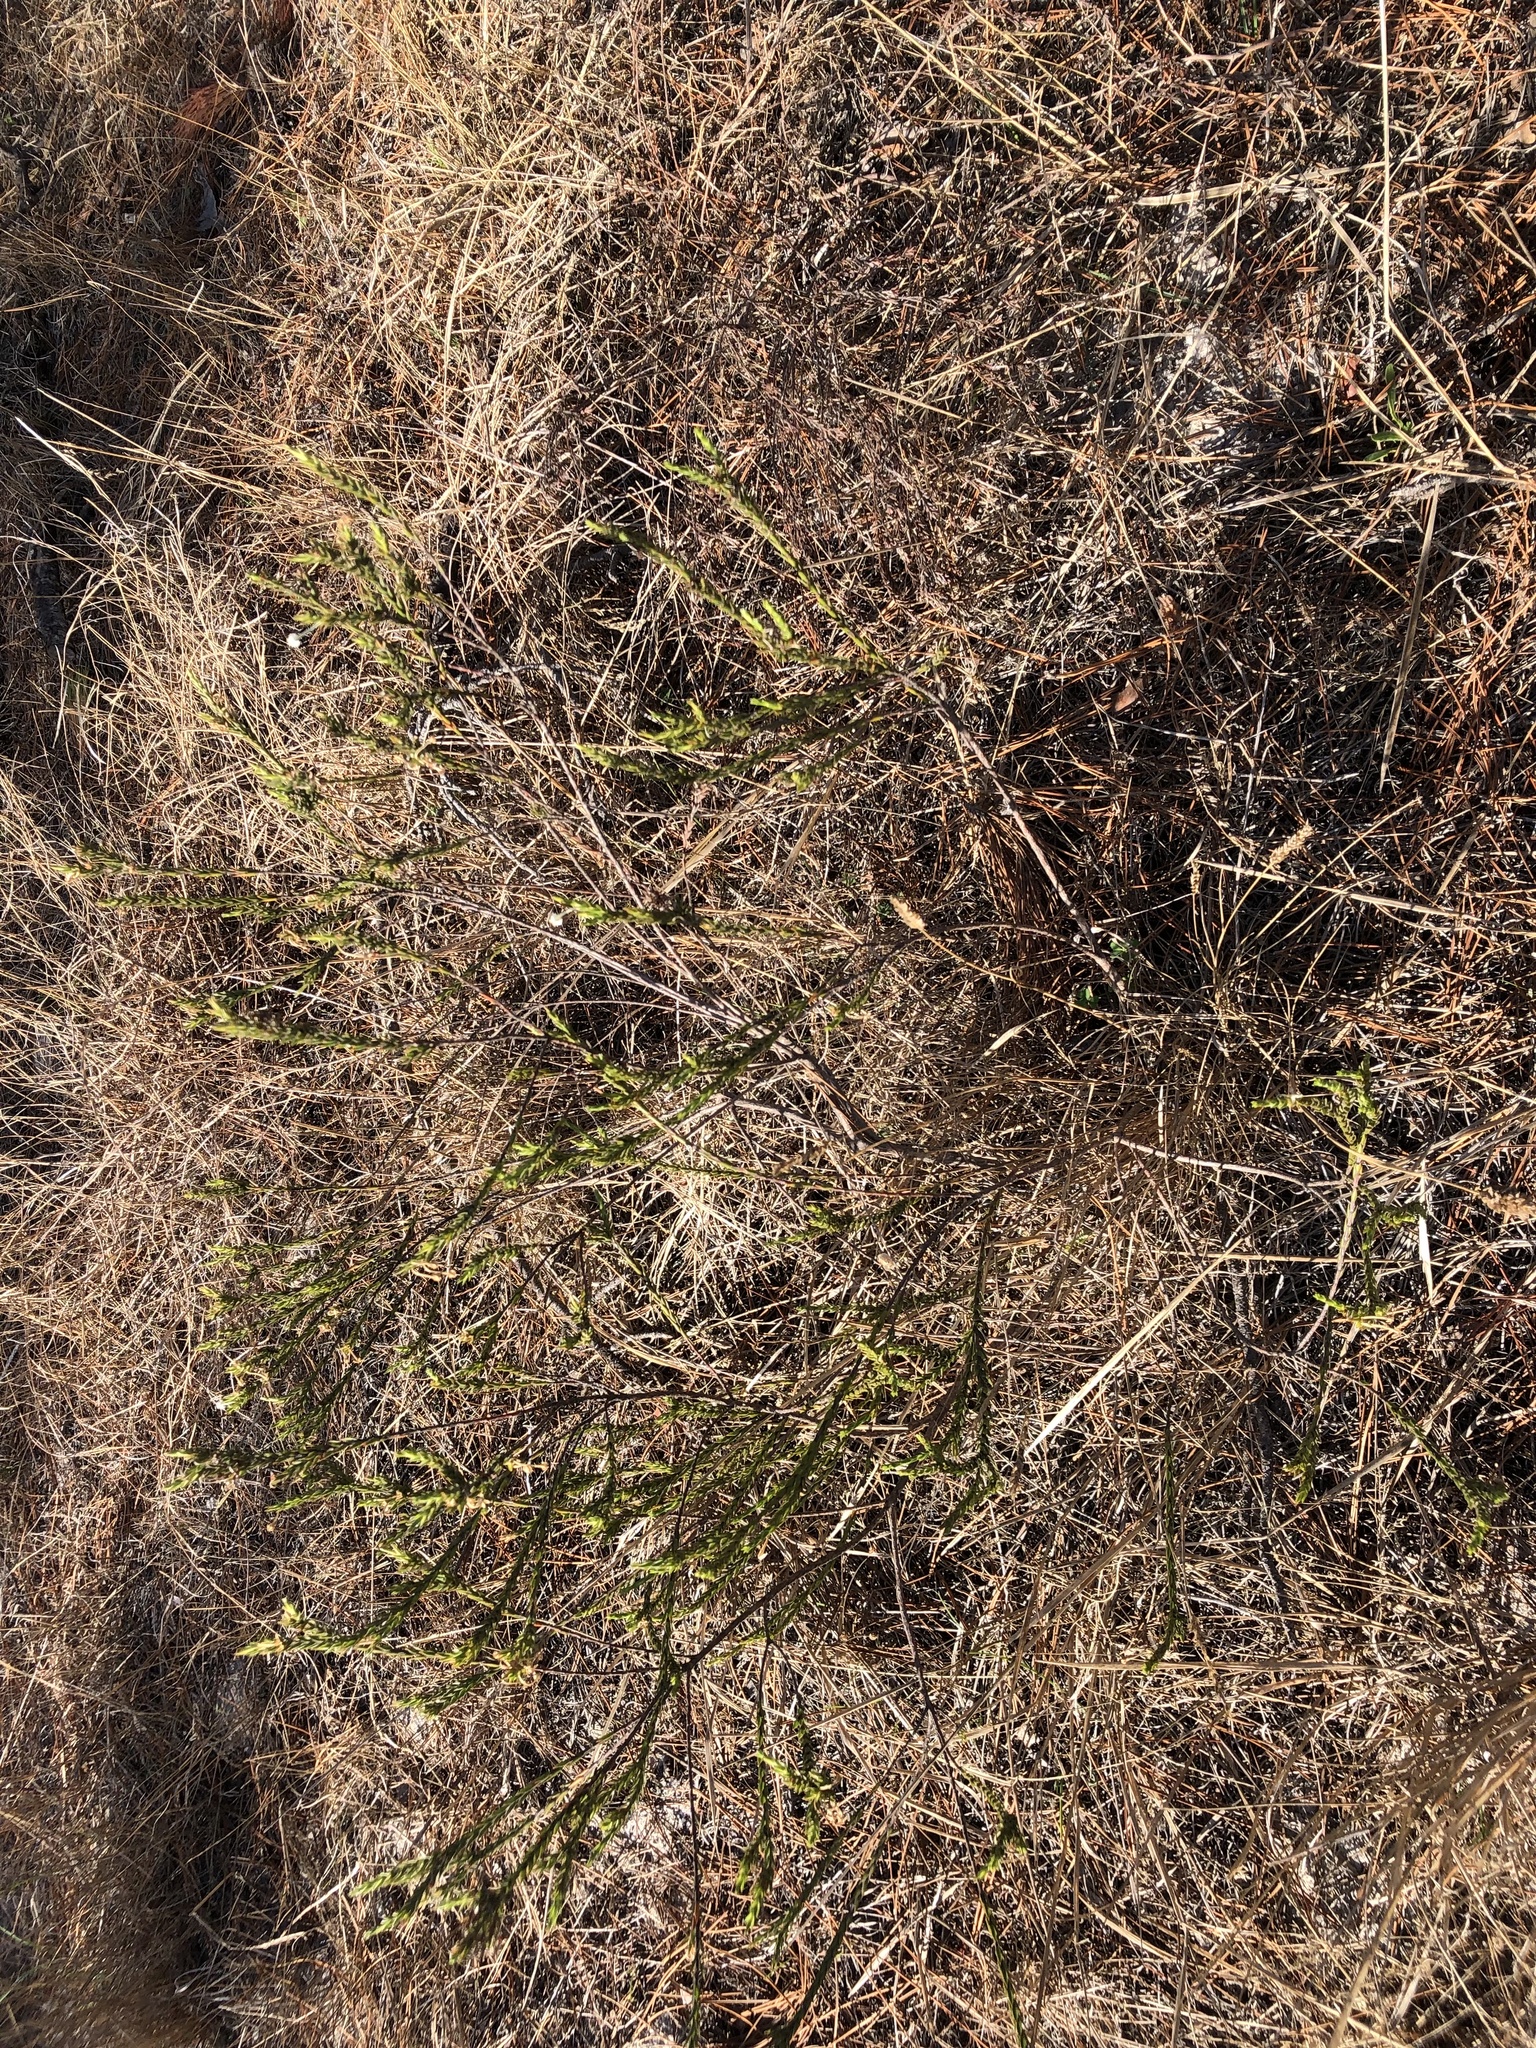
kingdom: Plantae
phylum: Tracheophyta
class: Magnoliopsida
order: Malvales
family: Thymelaeaceae
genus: Struthiola
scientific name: Struthiola ciliata
